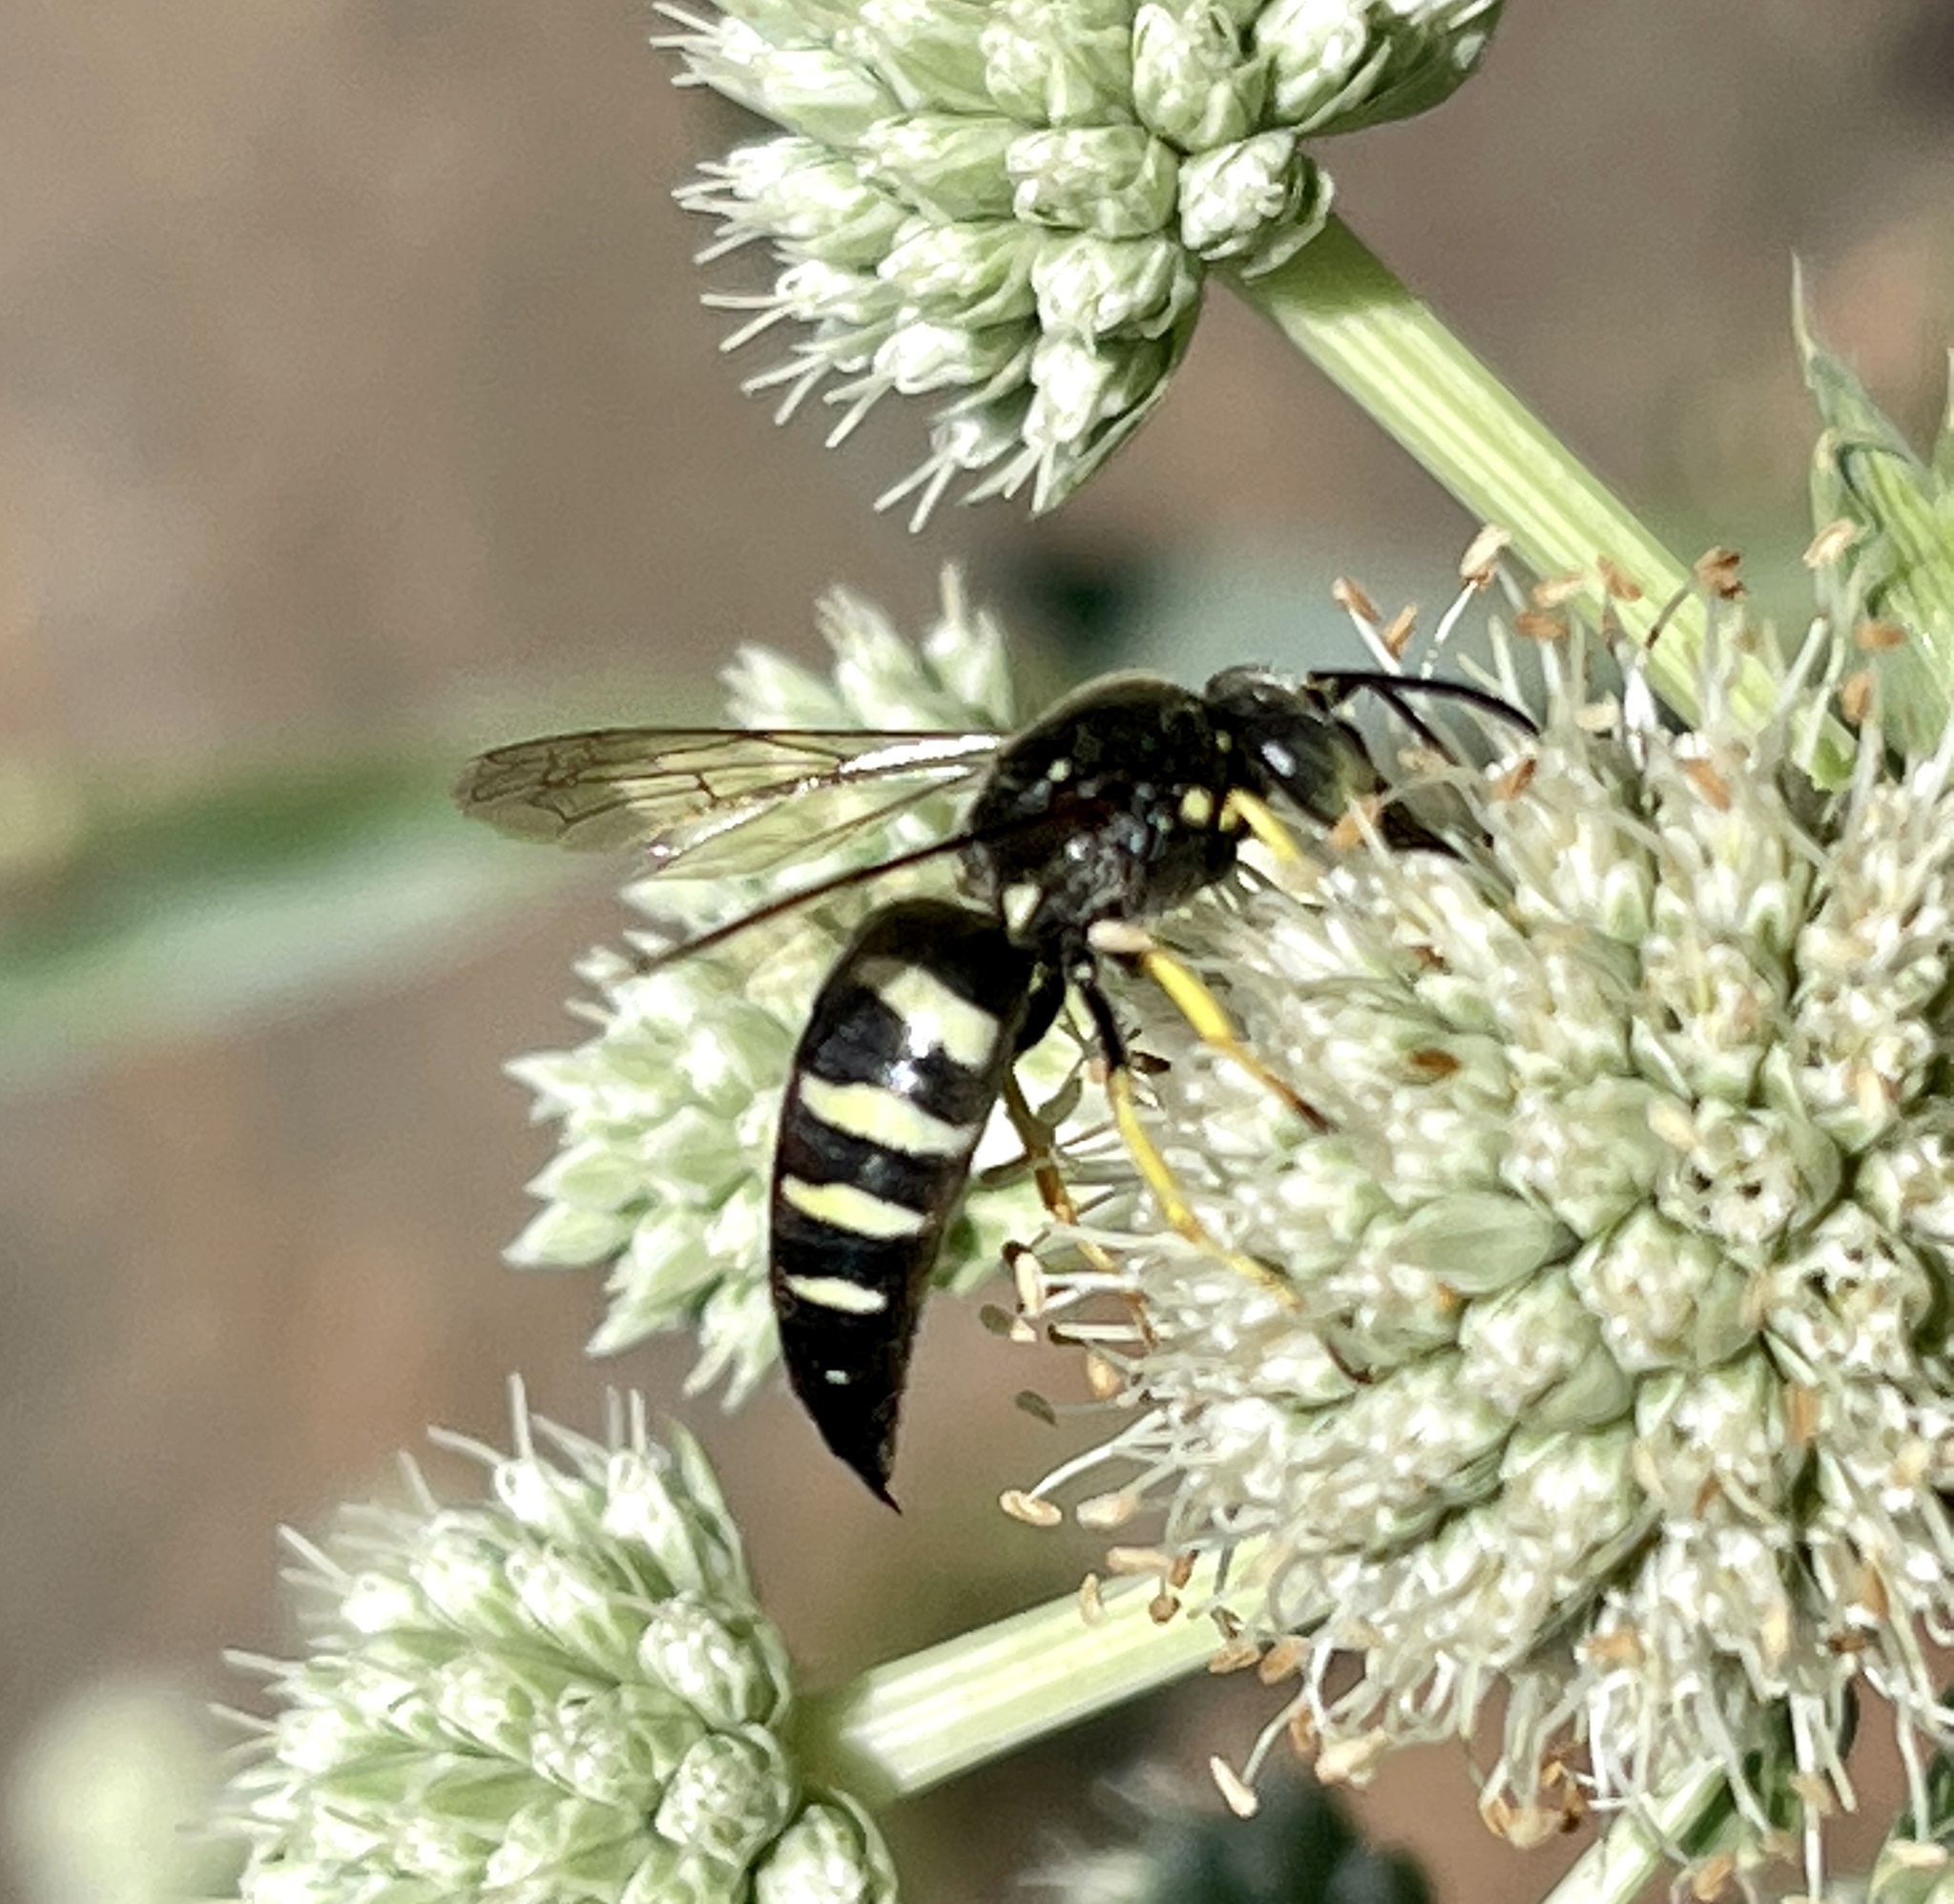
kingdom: Animalia
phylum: Arthropoda
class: Insecta
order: Hymenoptera
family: Crabronidae
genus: Bicyrtes
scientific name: Bicyrtes quadrifasciatus
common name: Four-banded stink bug hunter wasp
